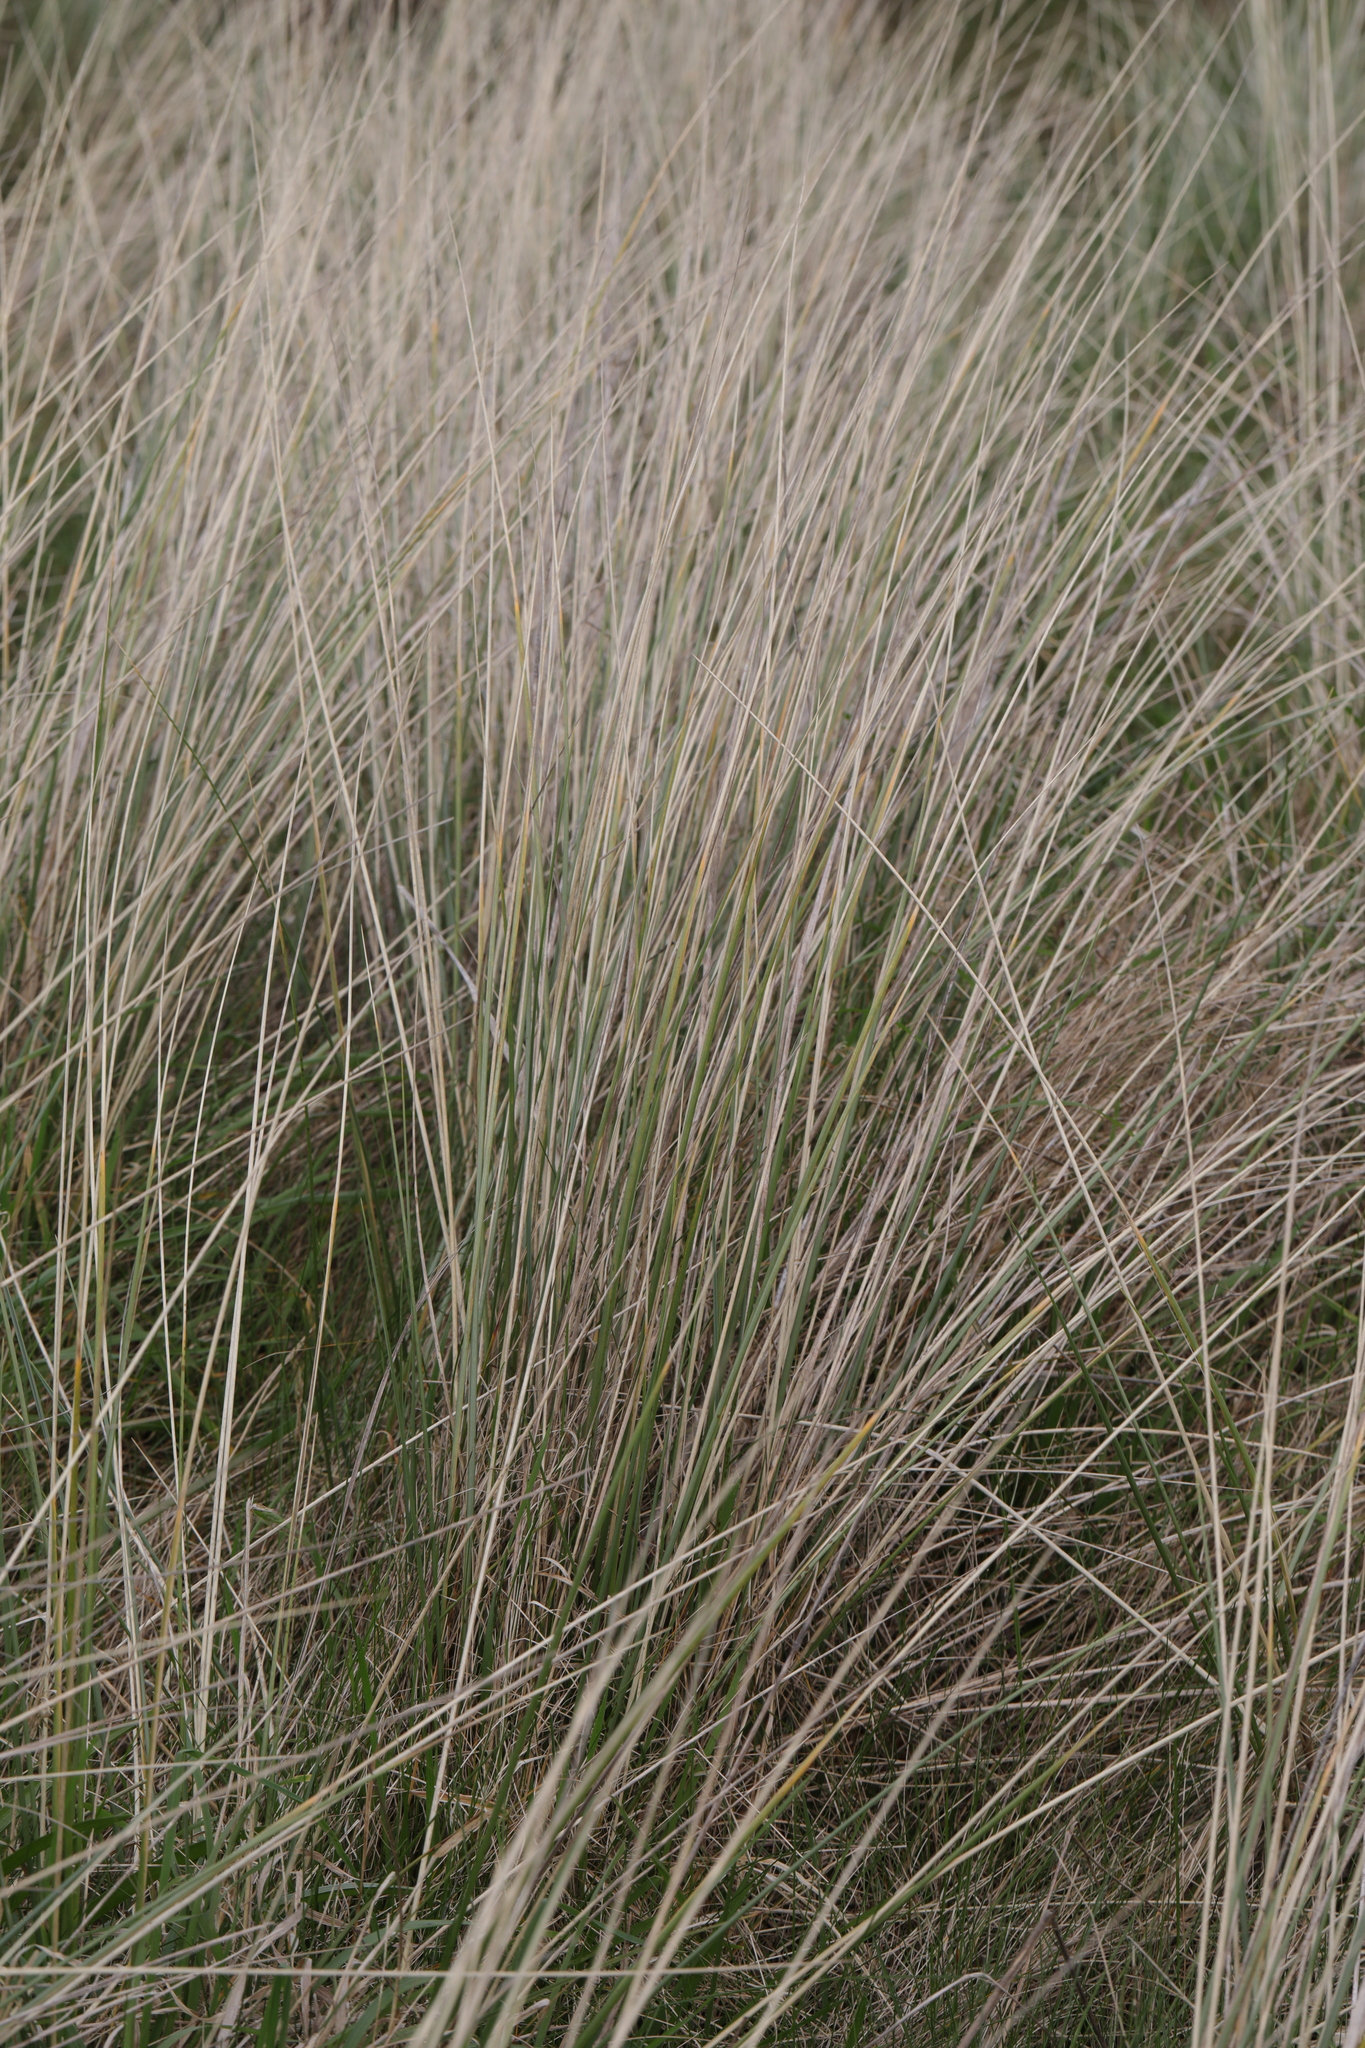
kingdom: Plantae
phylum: Tracheophyta
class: Liliopsida
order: Poales
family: Poaceae
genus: Calamagrostis
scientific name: Calamagrostis arenaria
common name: European beachgrass
